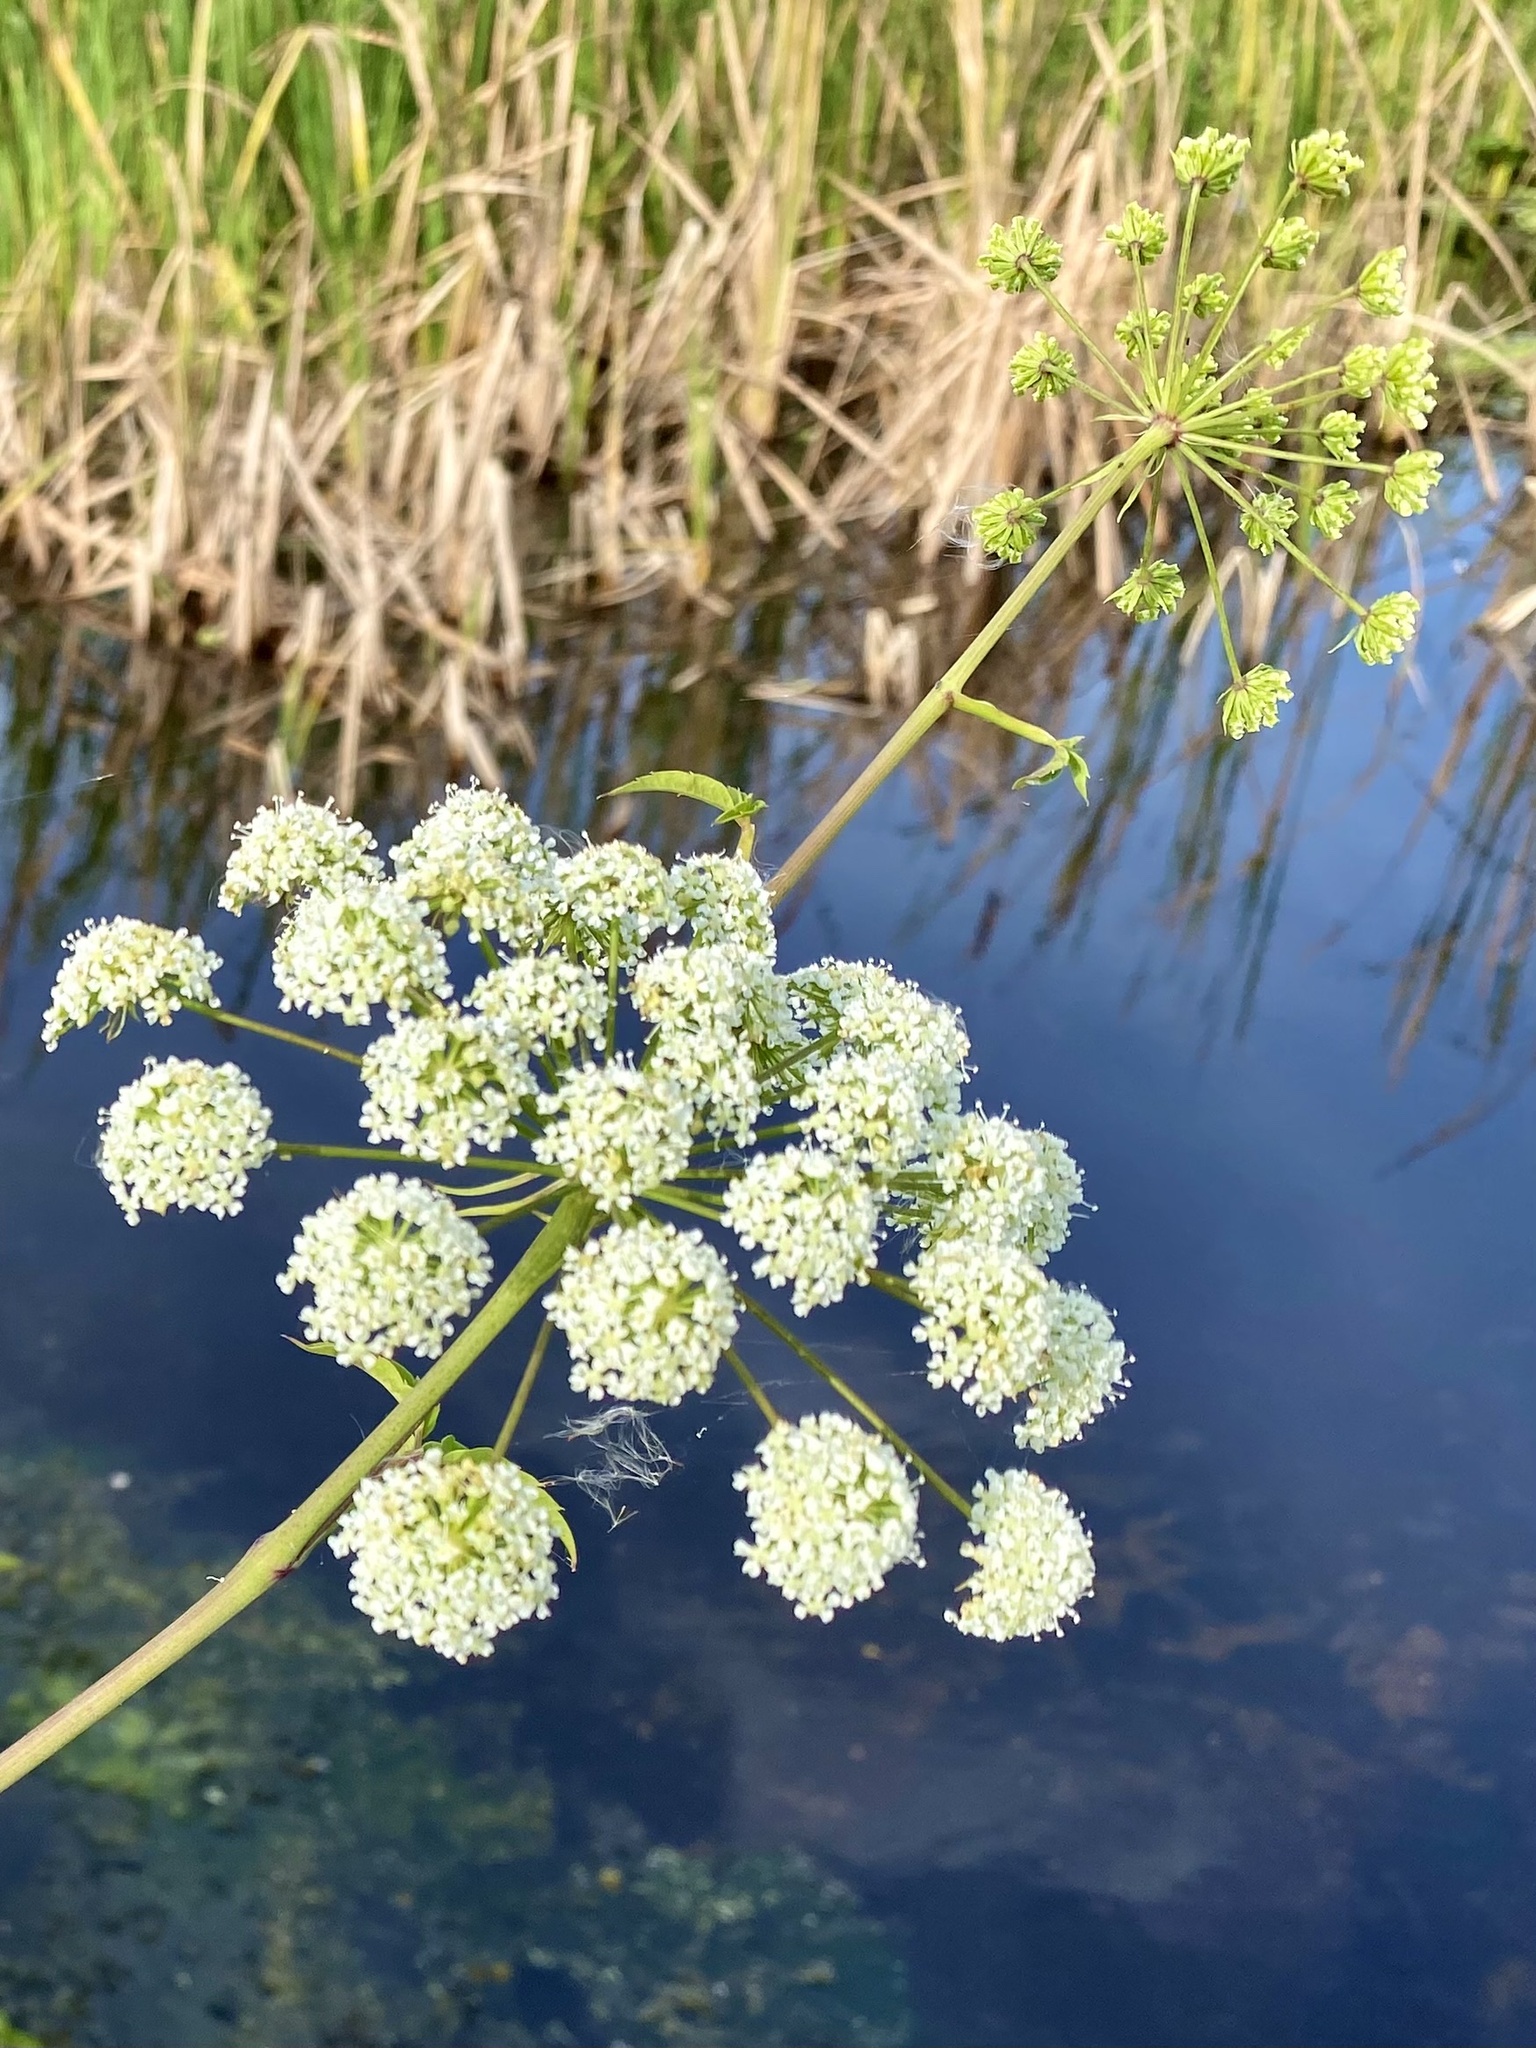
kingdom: Plantae
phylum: Tracheophyta
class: Magnoliopsida
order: Apiales
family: Apiaceae
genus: Cicuta
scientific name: Cicuta maculata
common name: Spotted cowbane
